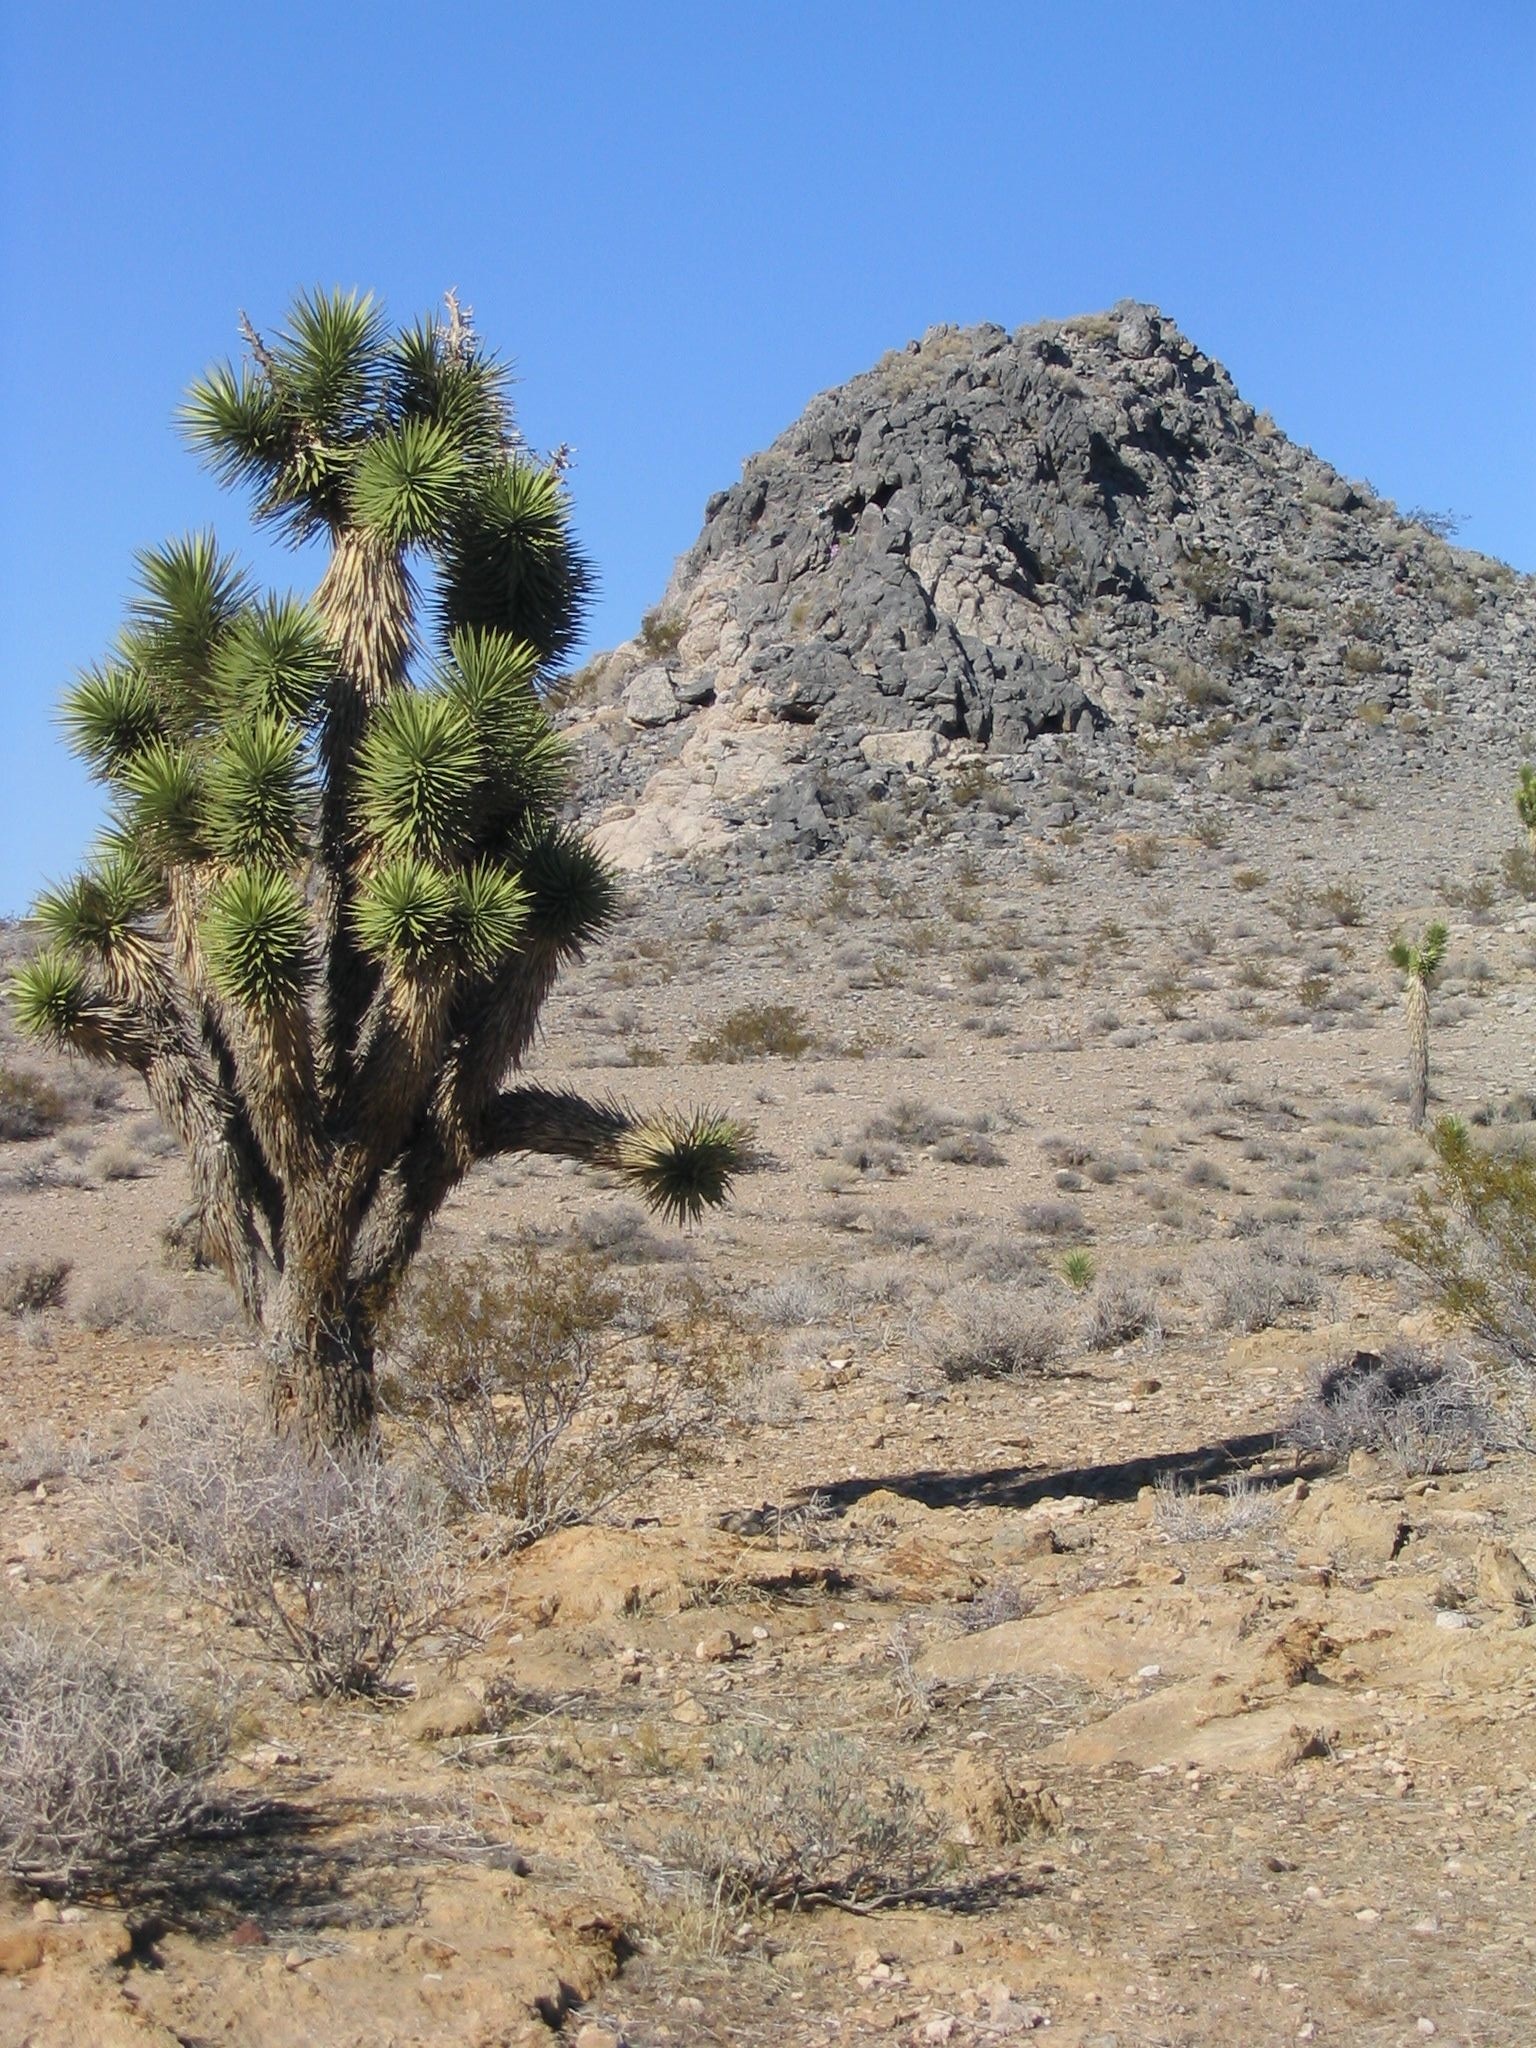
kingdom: Plantae
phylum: Tracheophyta
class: Liliopsida
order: Asparagales
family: Asparagaceae
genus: Yucca
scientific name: Yucca brevifolia
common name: Joshua tree
